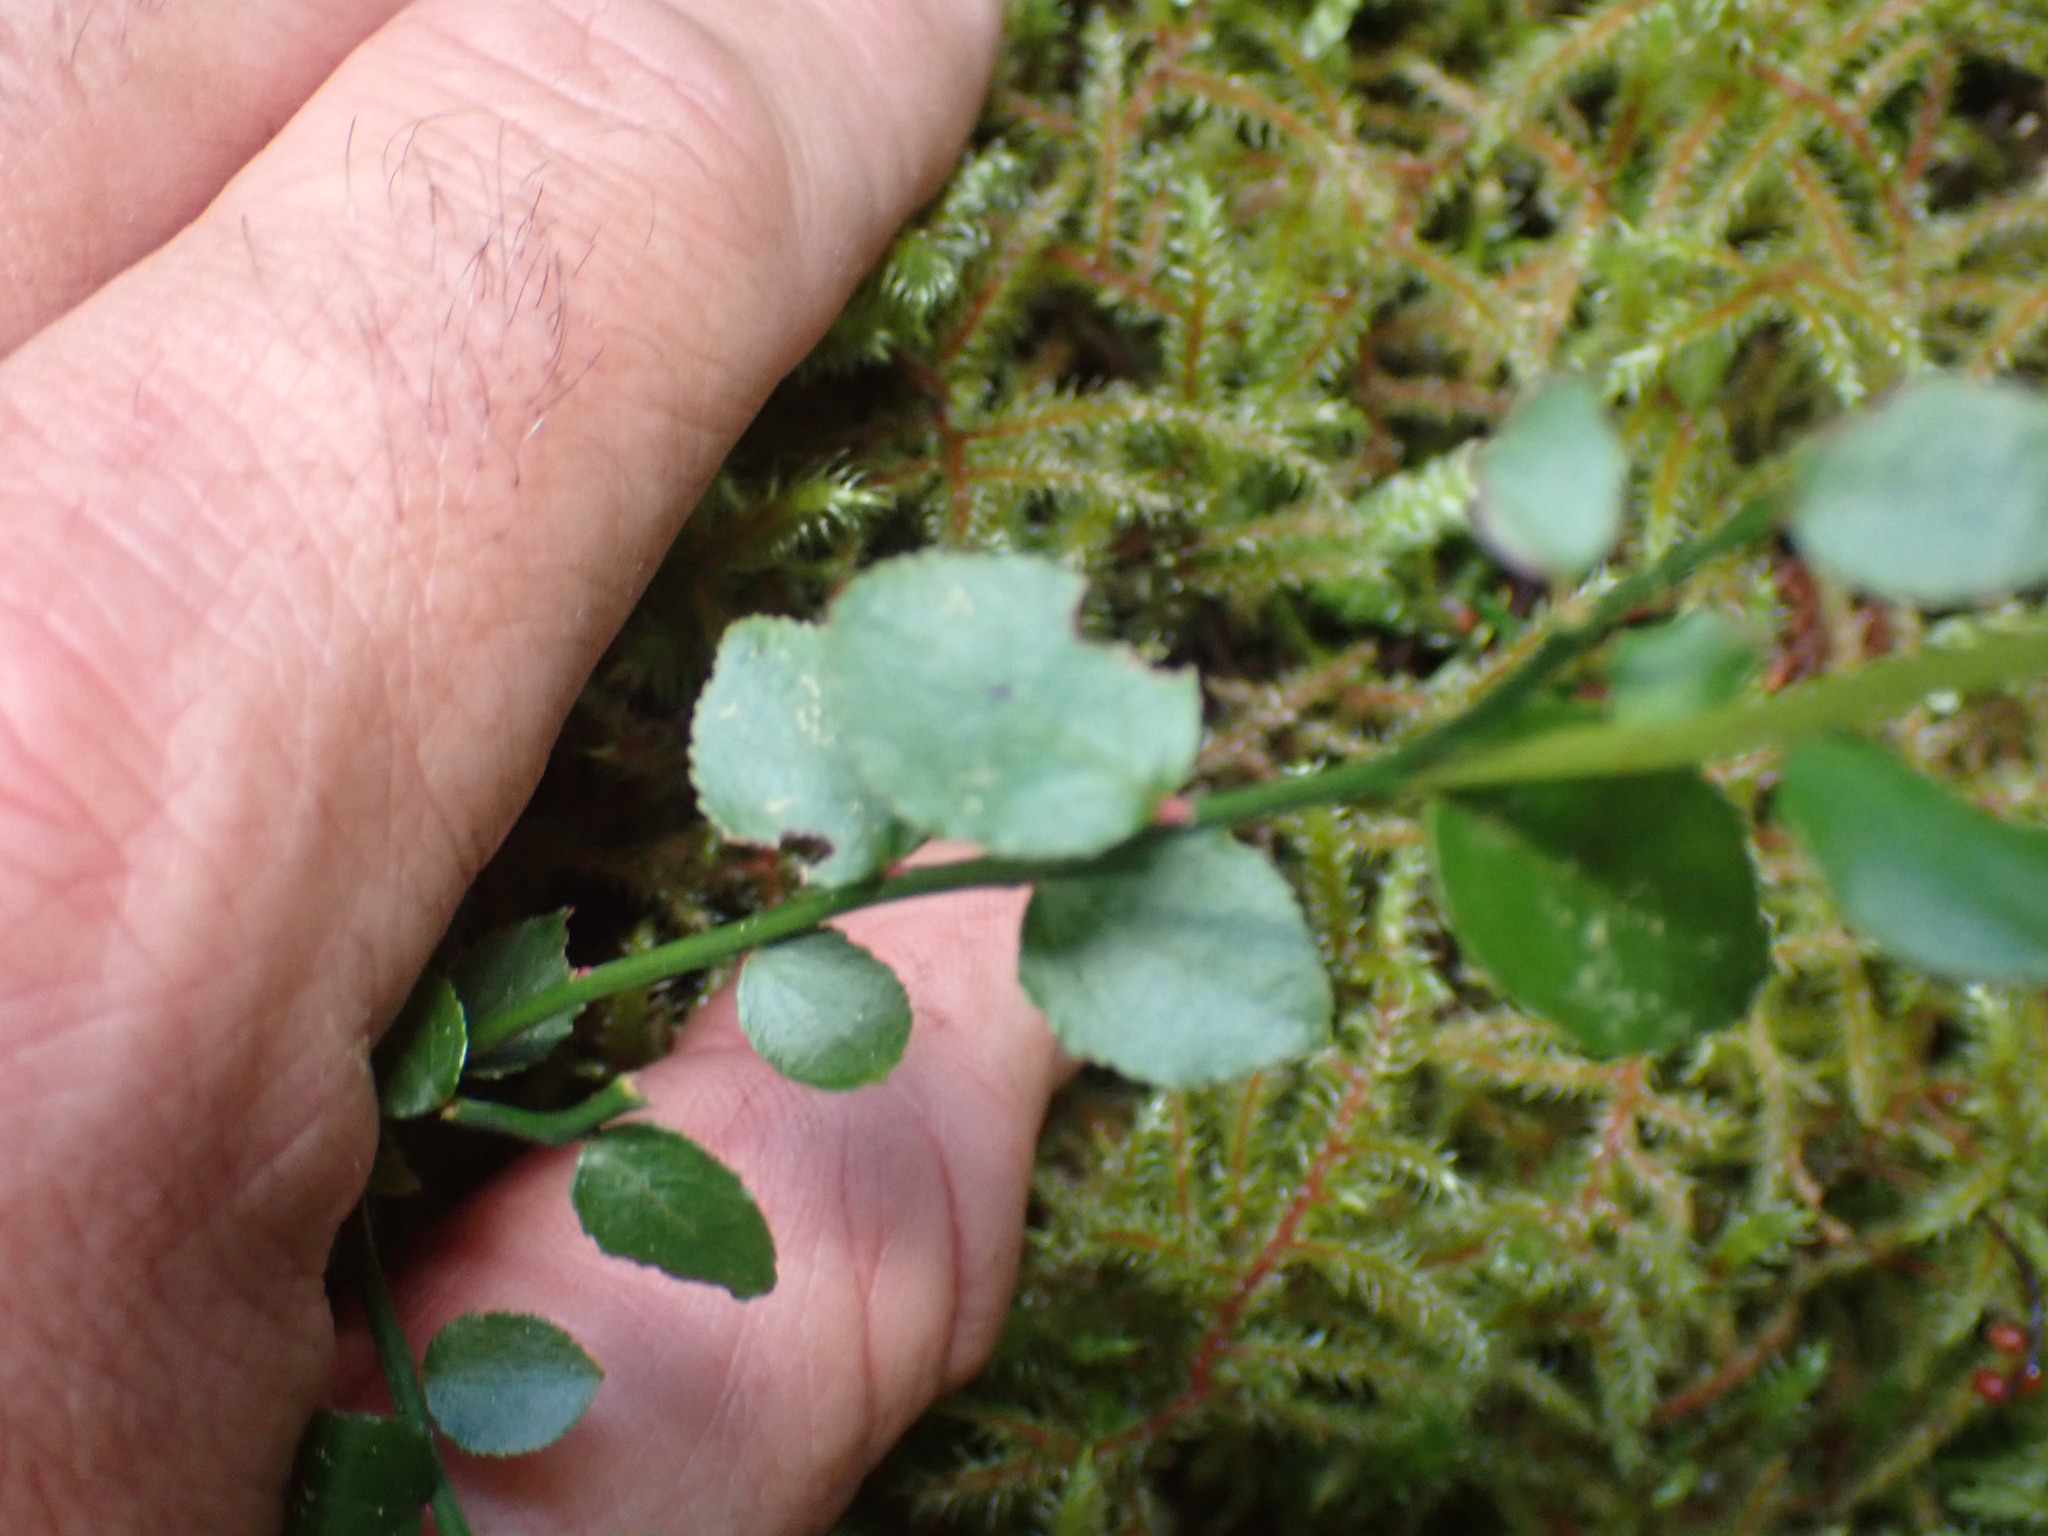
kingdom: Plantae
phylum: Tracheophyta
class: Magnoliopsida
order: Ericales
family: Ericaceae
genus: Vaccinium
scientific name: Vaccinium parvifolium
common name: Red-huckleberry
